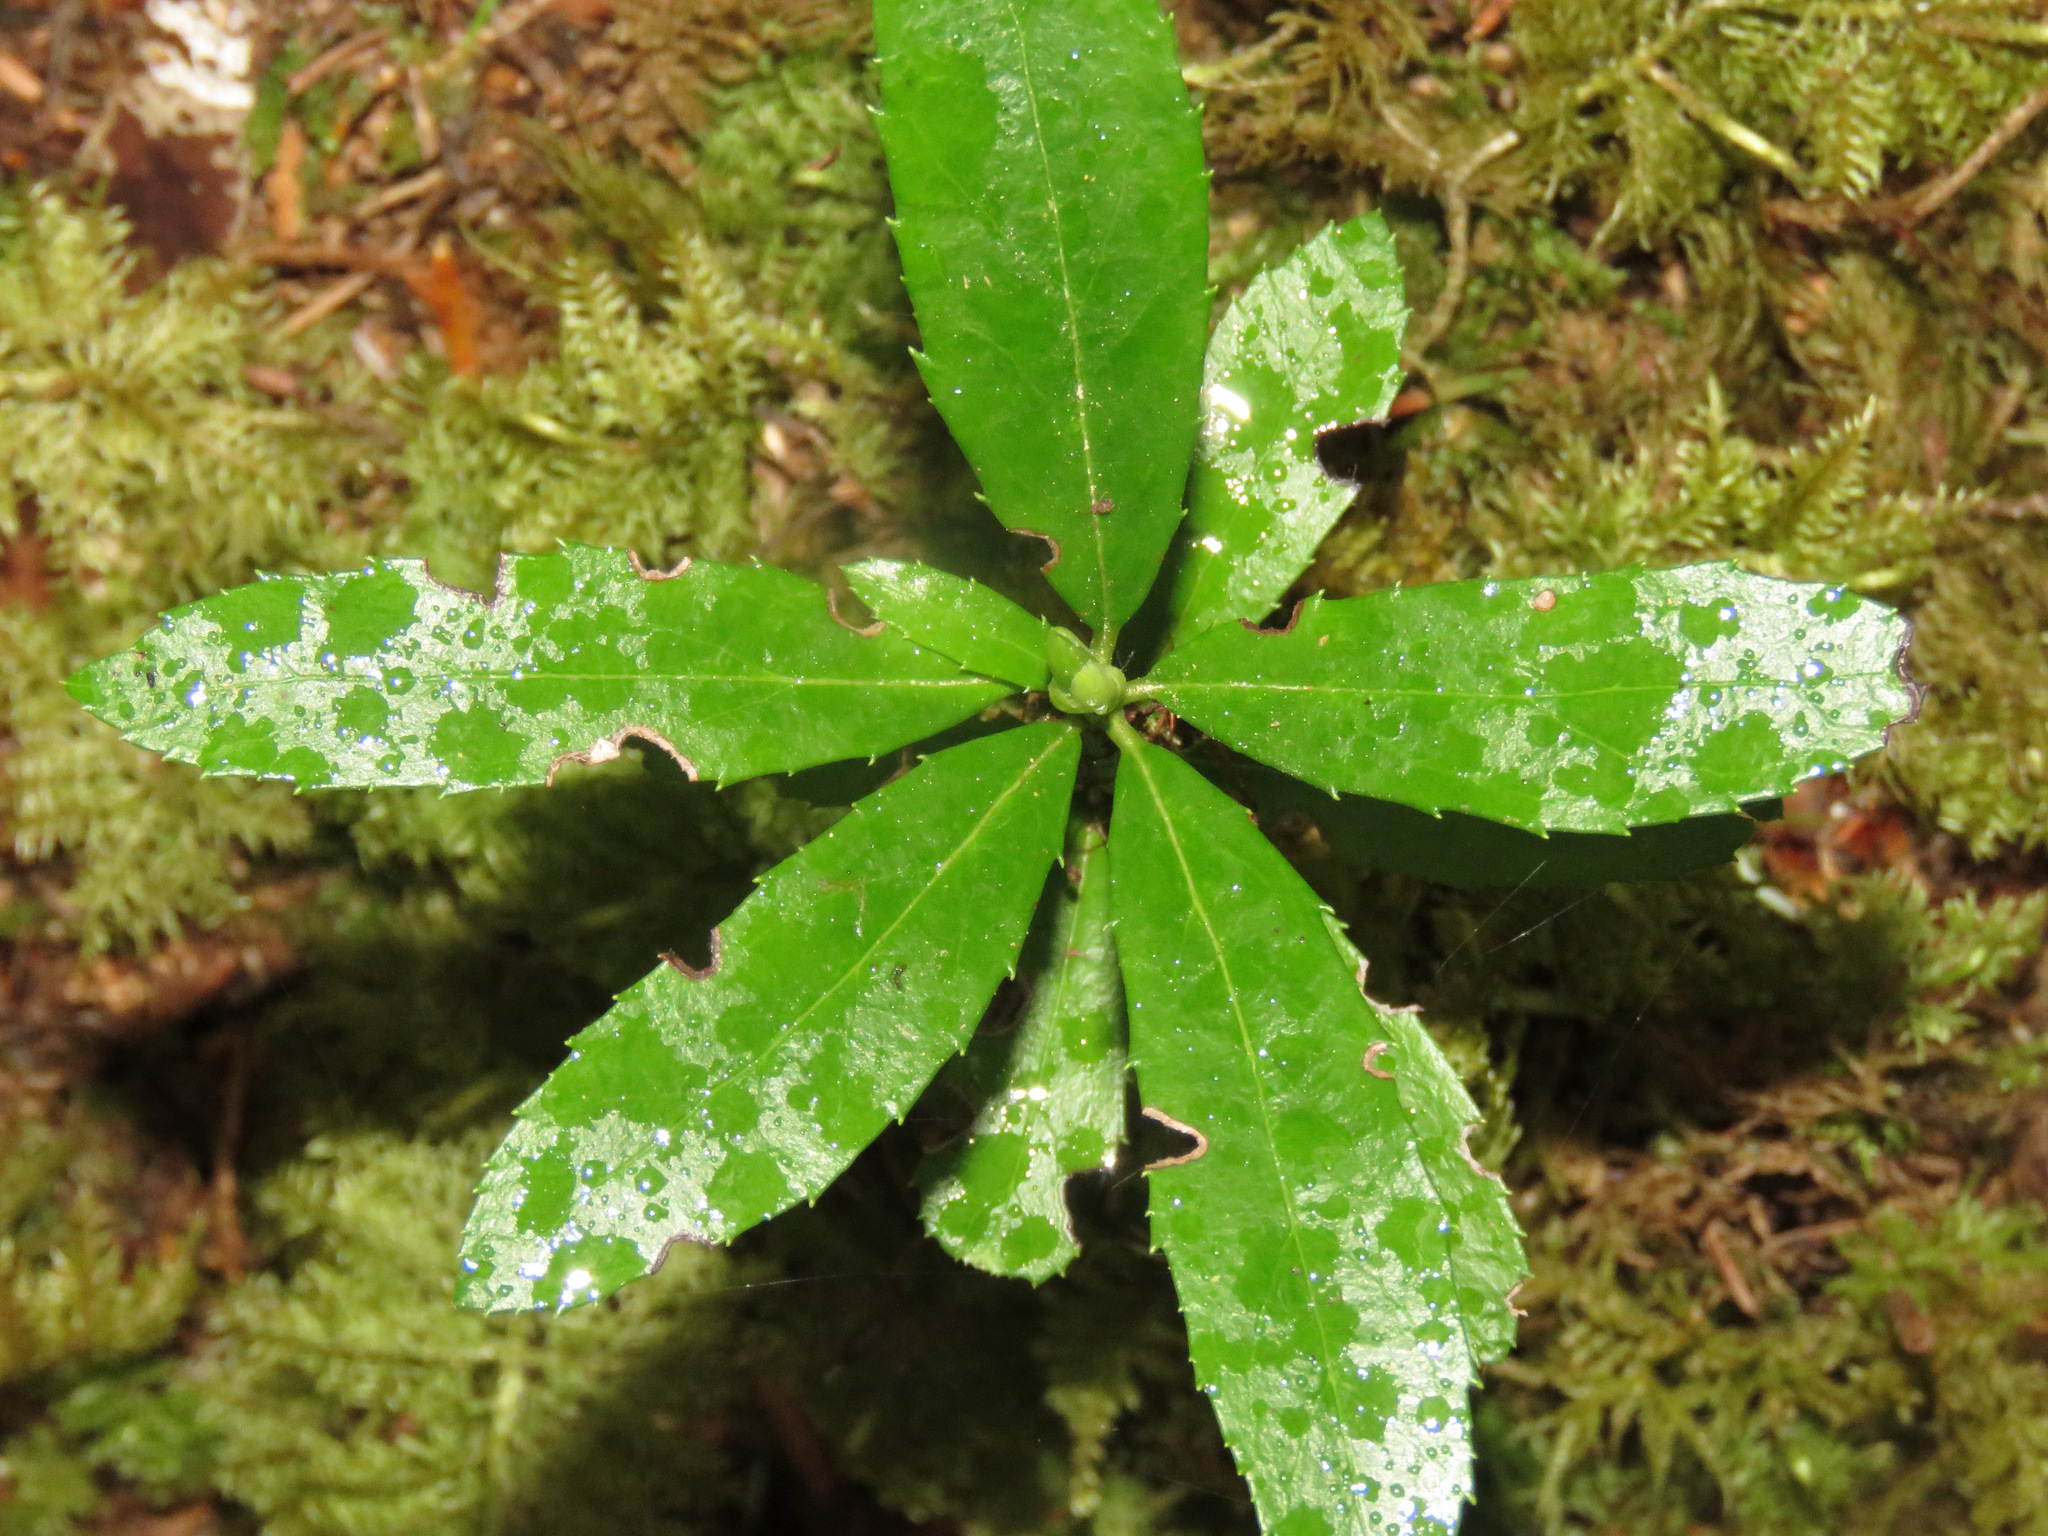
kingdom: Plantae
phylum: Tracheophyta
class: Magnoliopsida
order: Ericales
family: Ericaceae
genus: Chimaphila
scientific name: Chimaphila umbellata
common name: Pipsissewa
